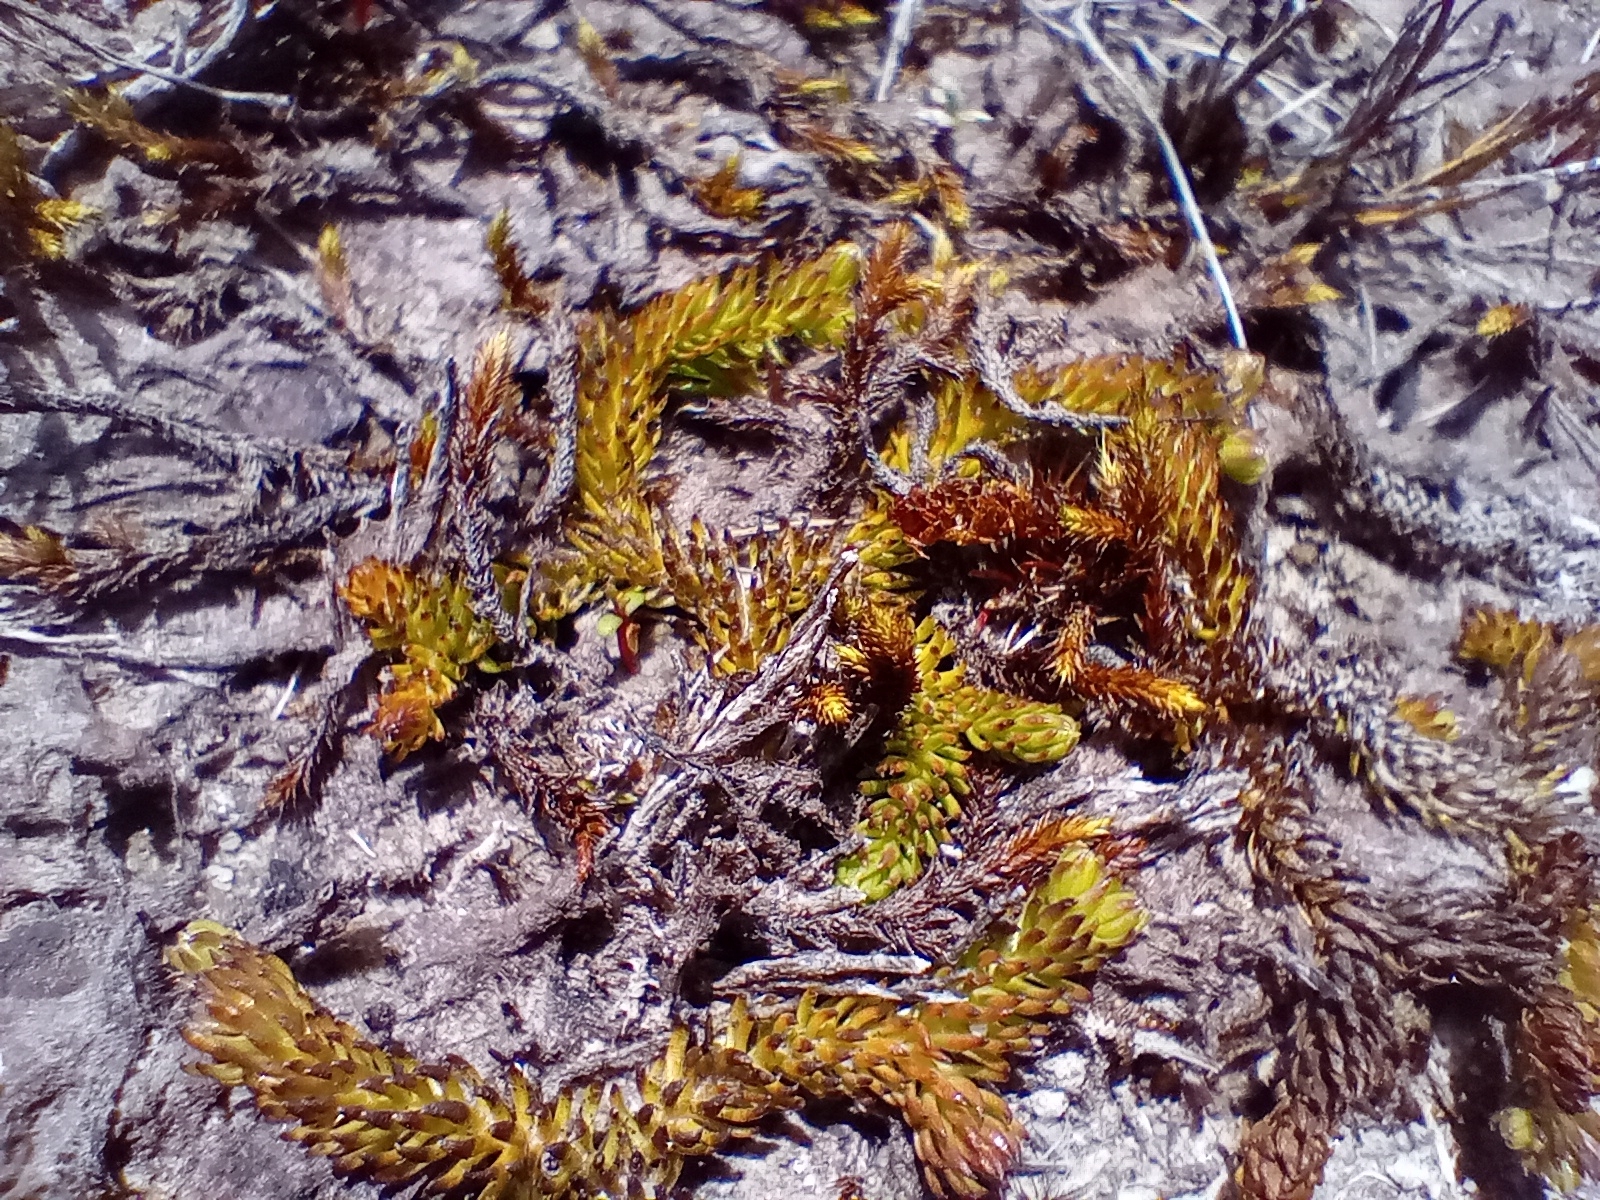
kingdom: Plantae
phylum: Tracheophyta
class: Lycopodiopsida
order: Lycopodiales
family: Lycopodiaceae
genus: Lateristachys
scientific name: Lateristachys diffusa
